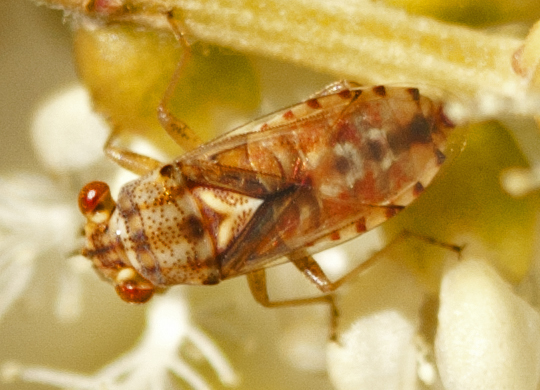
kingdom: Animalia
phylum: Arthropoda
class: Insecta
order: Hemiptera
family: Geocoridae
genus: Germalus
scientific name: Germalus victoriae
